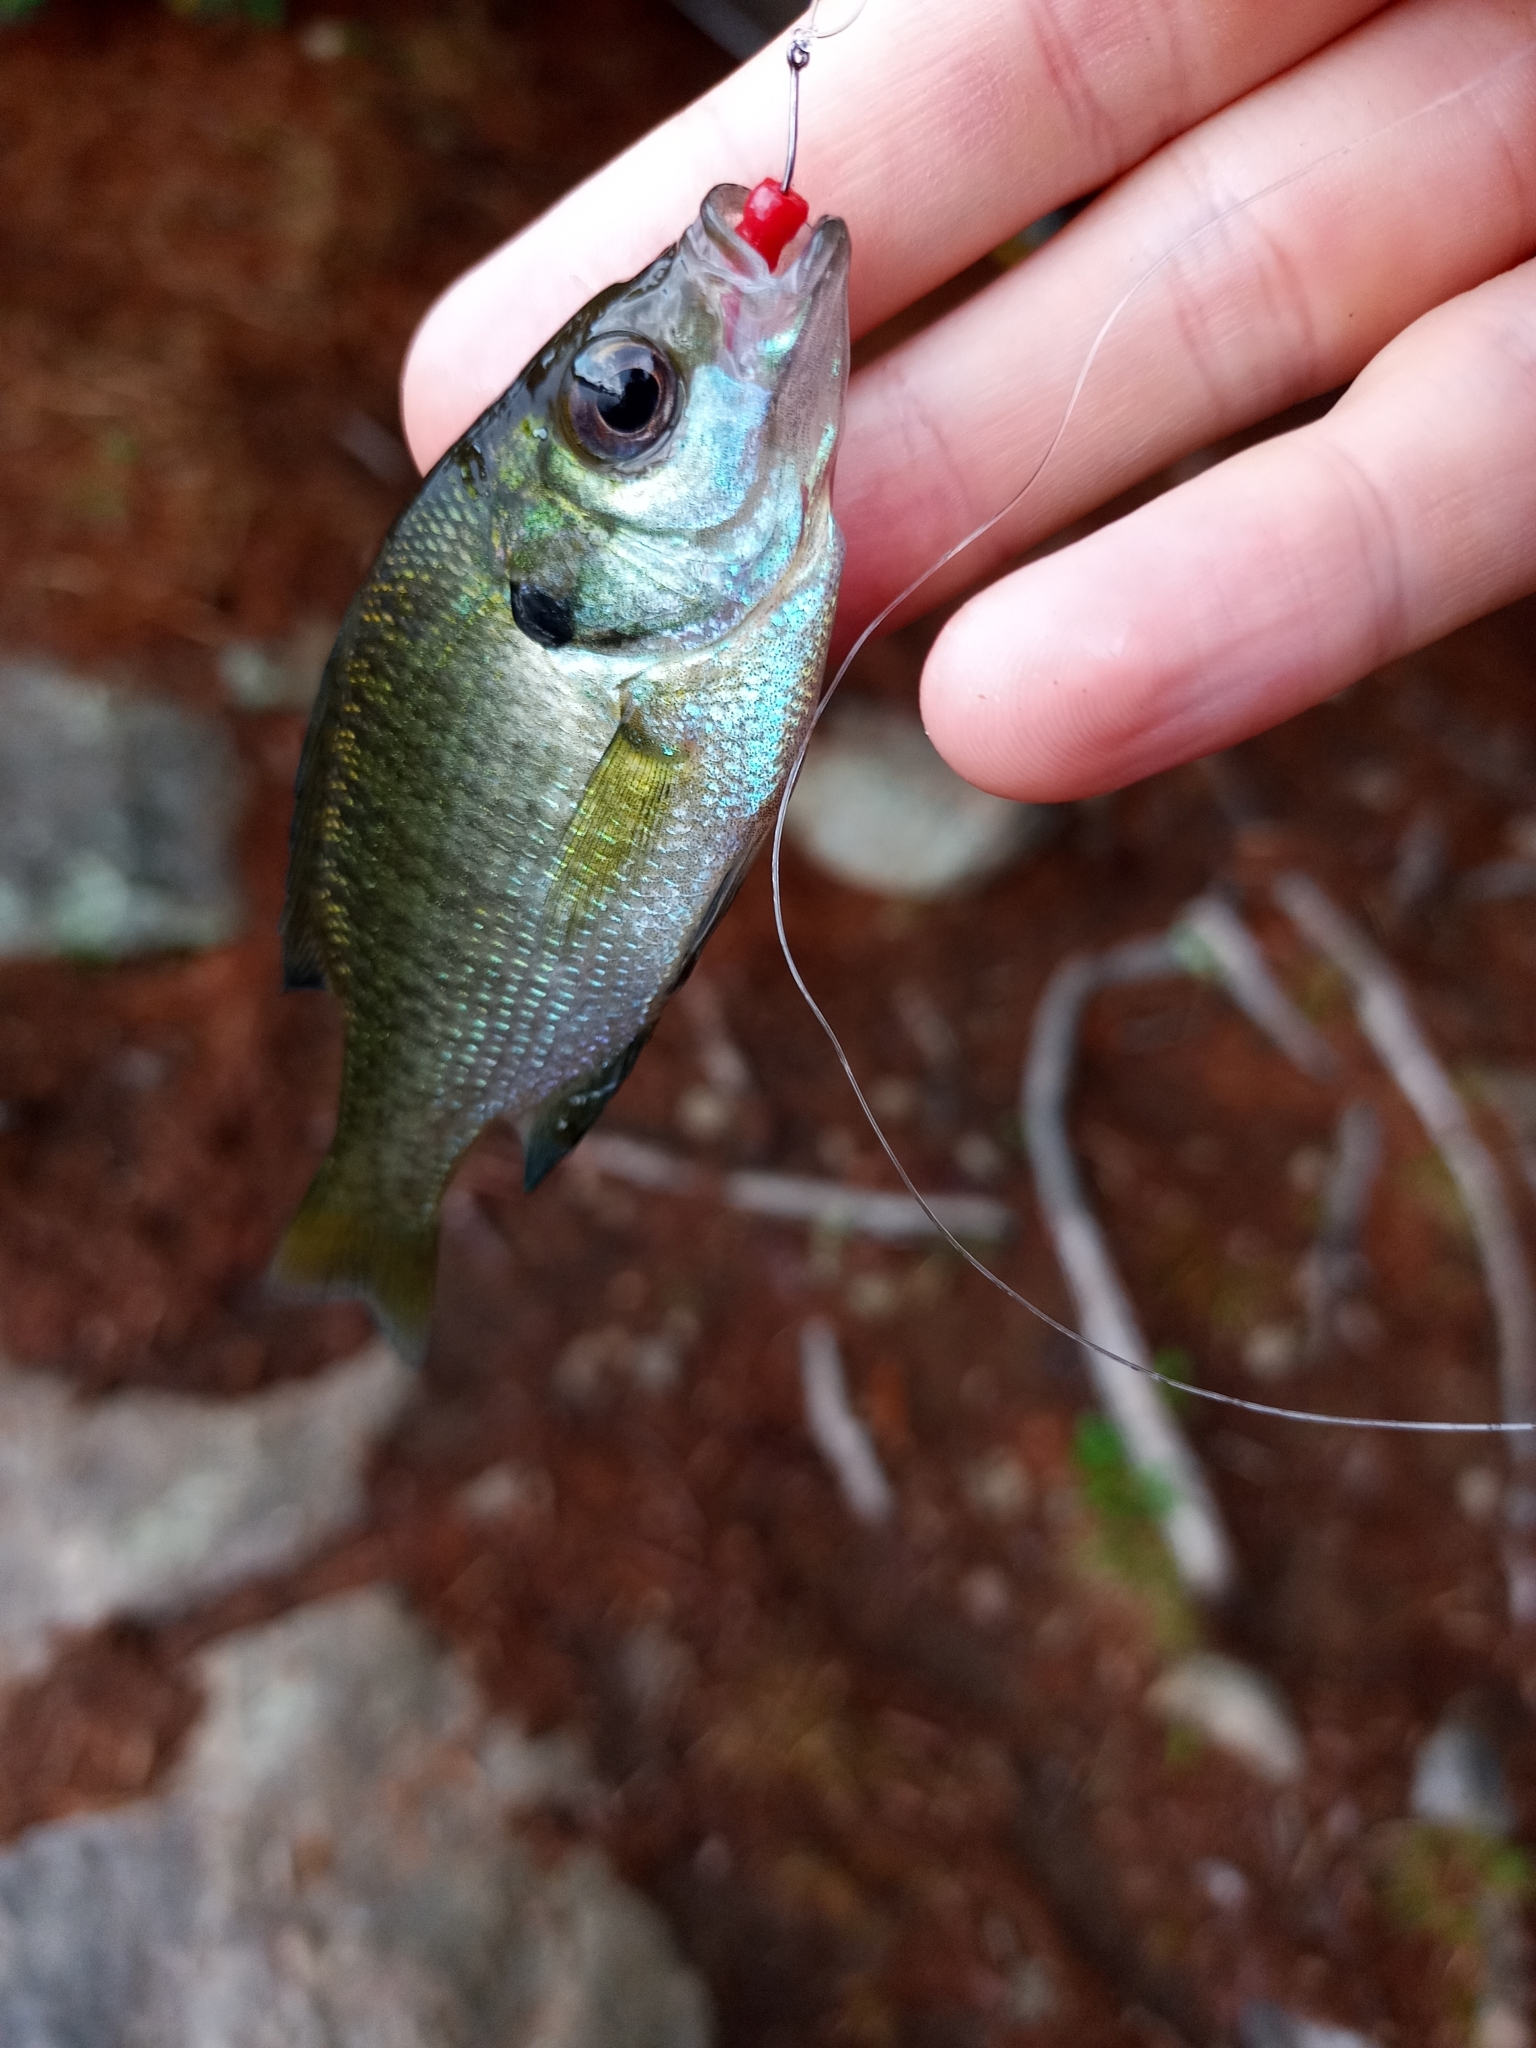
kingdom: Animalia
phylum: Chordata
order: Perciformes
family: Centrarchidae
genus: Lepomis
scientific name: Lepomis macrochirus
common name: Bluegill
